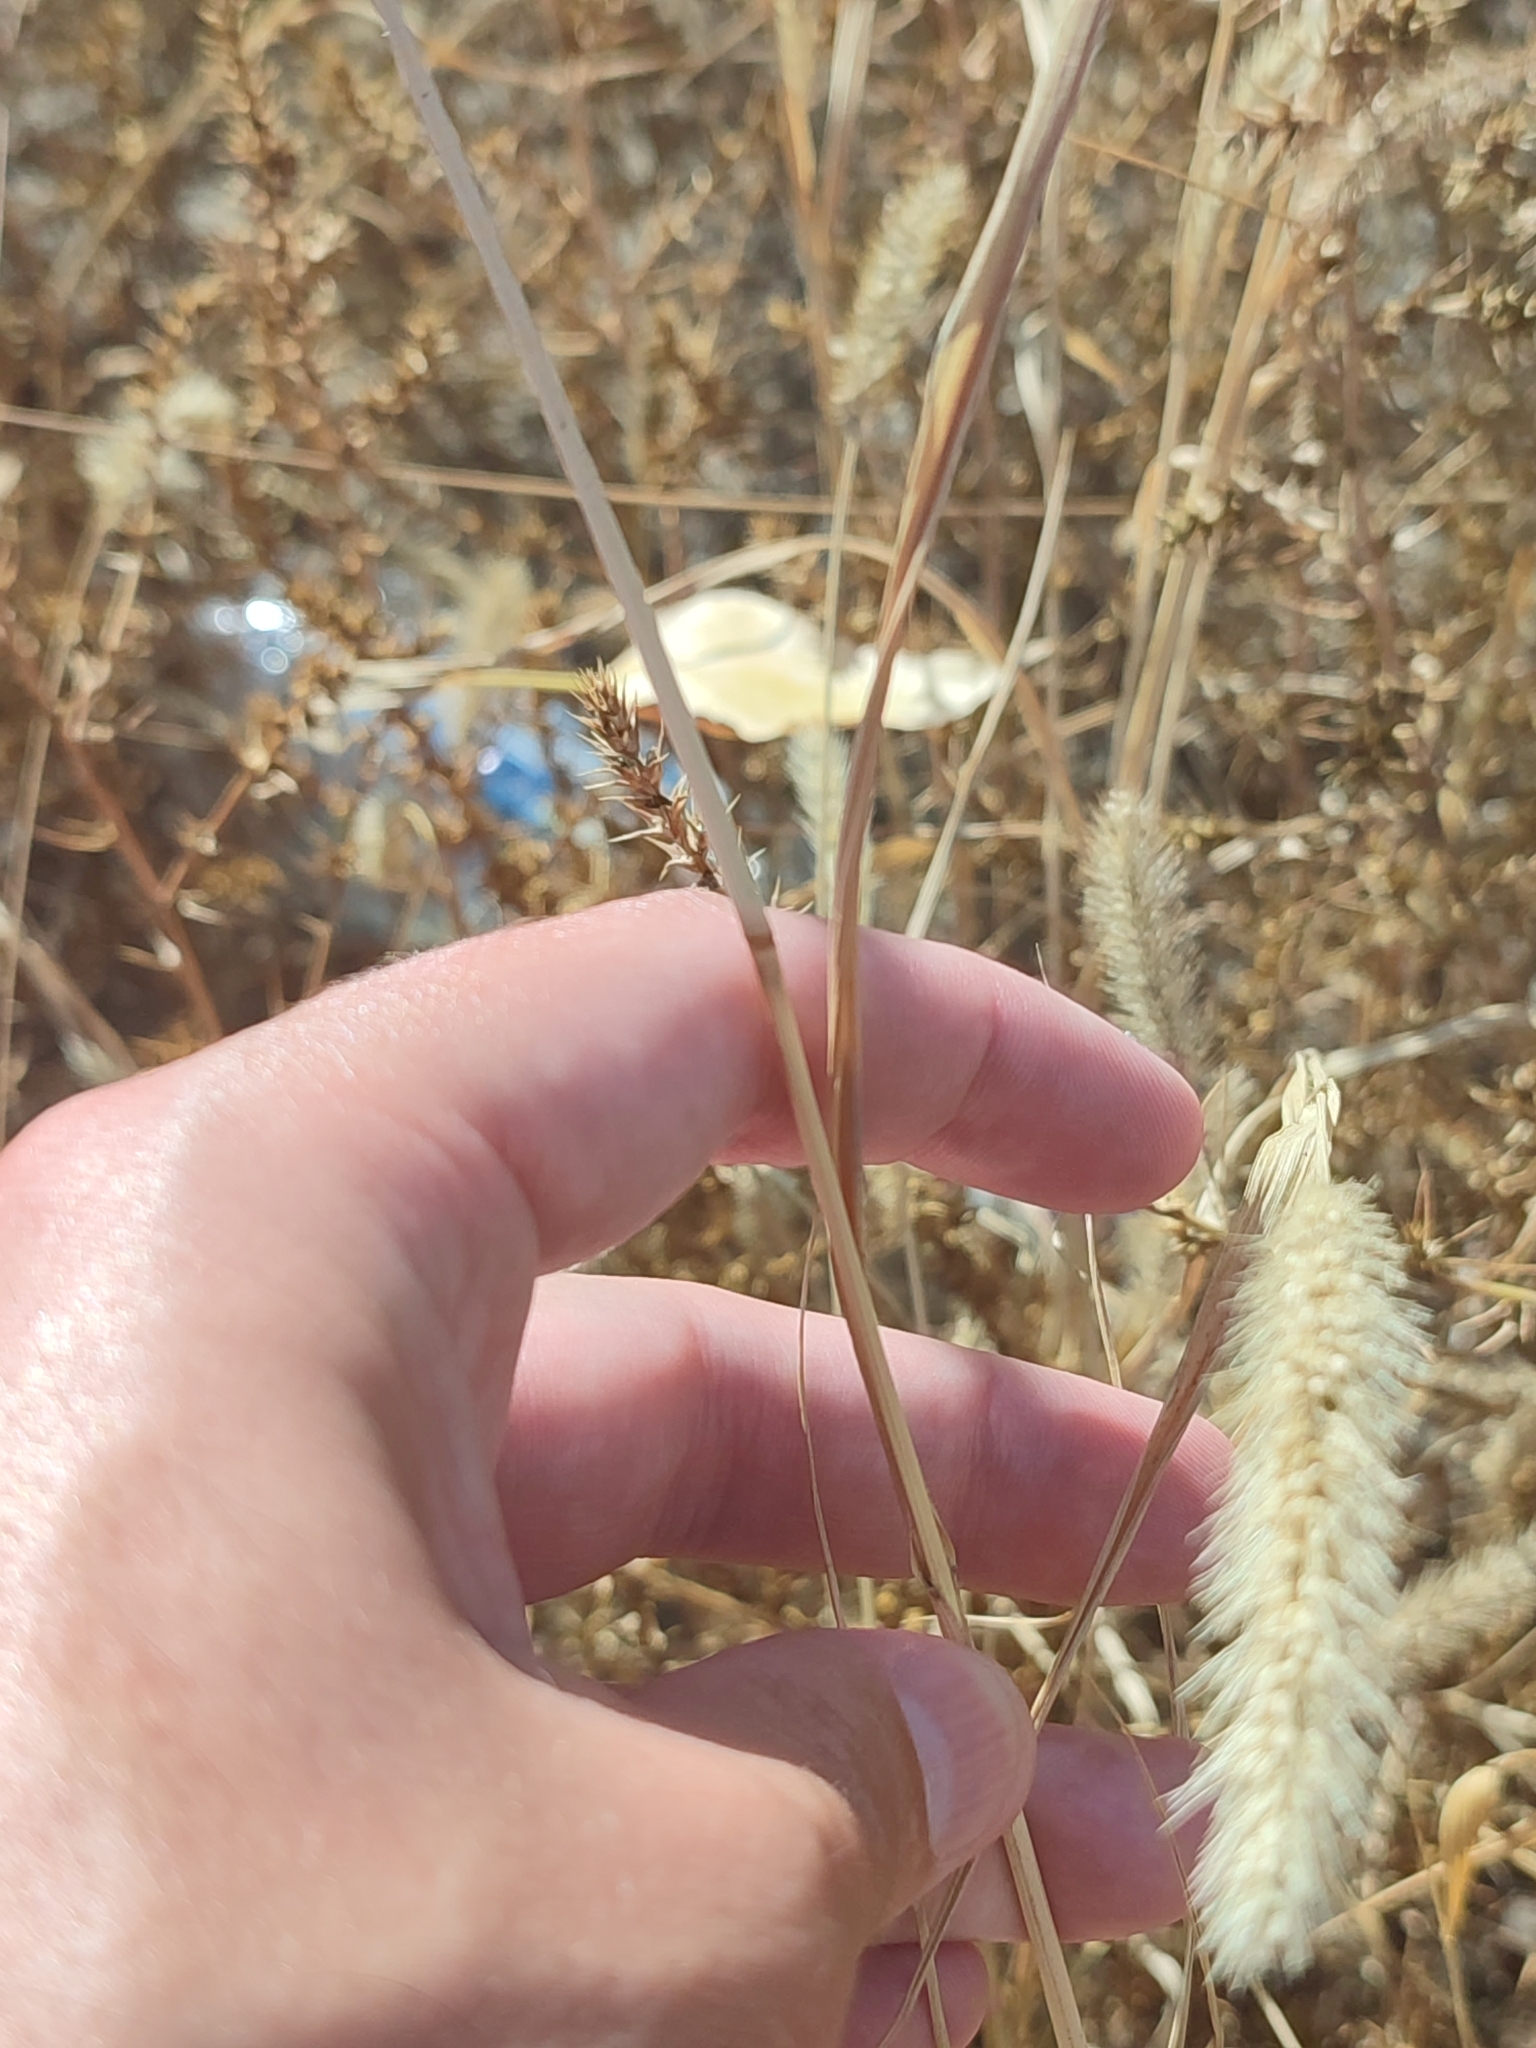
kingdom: Plantae
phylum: Tracheophyta
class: Liliopsida
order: Poales
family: Poaceae
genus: Setaria
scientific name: Setaria viridis
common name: Green bristlegrass
